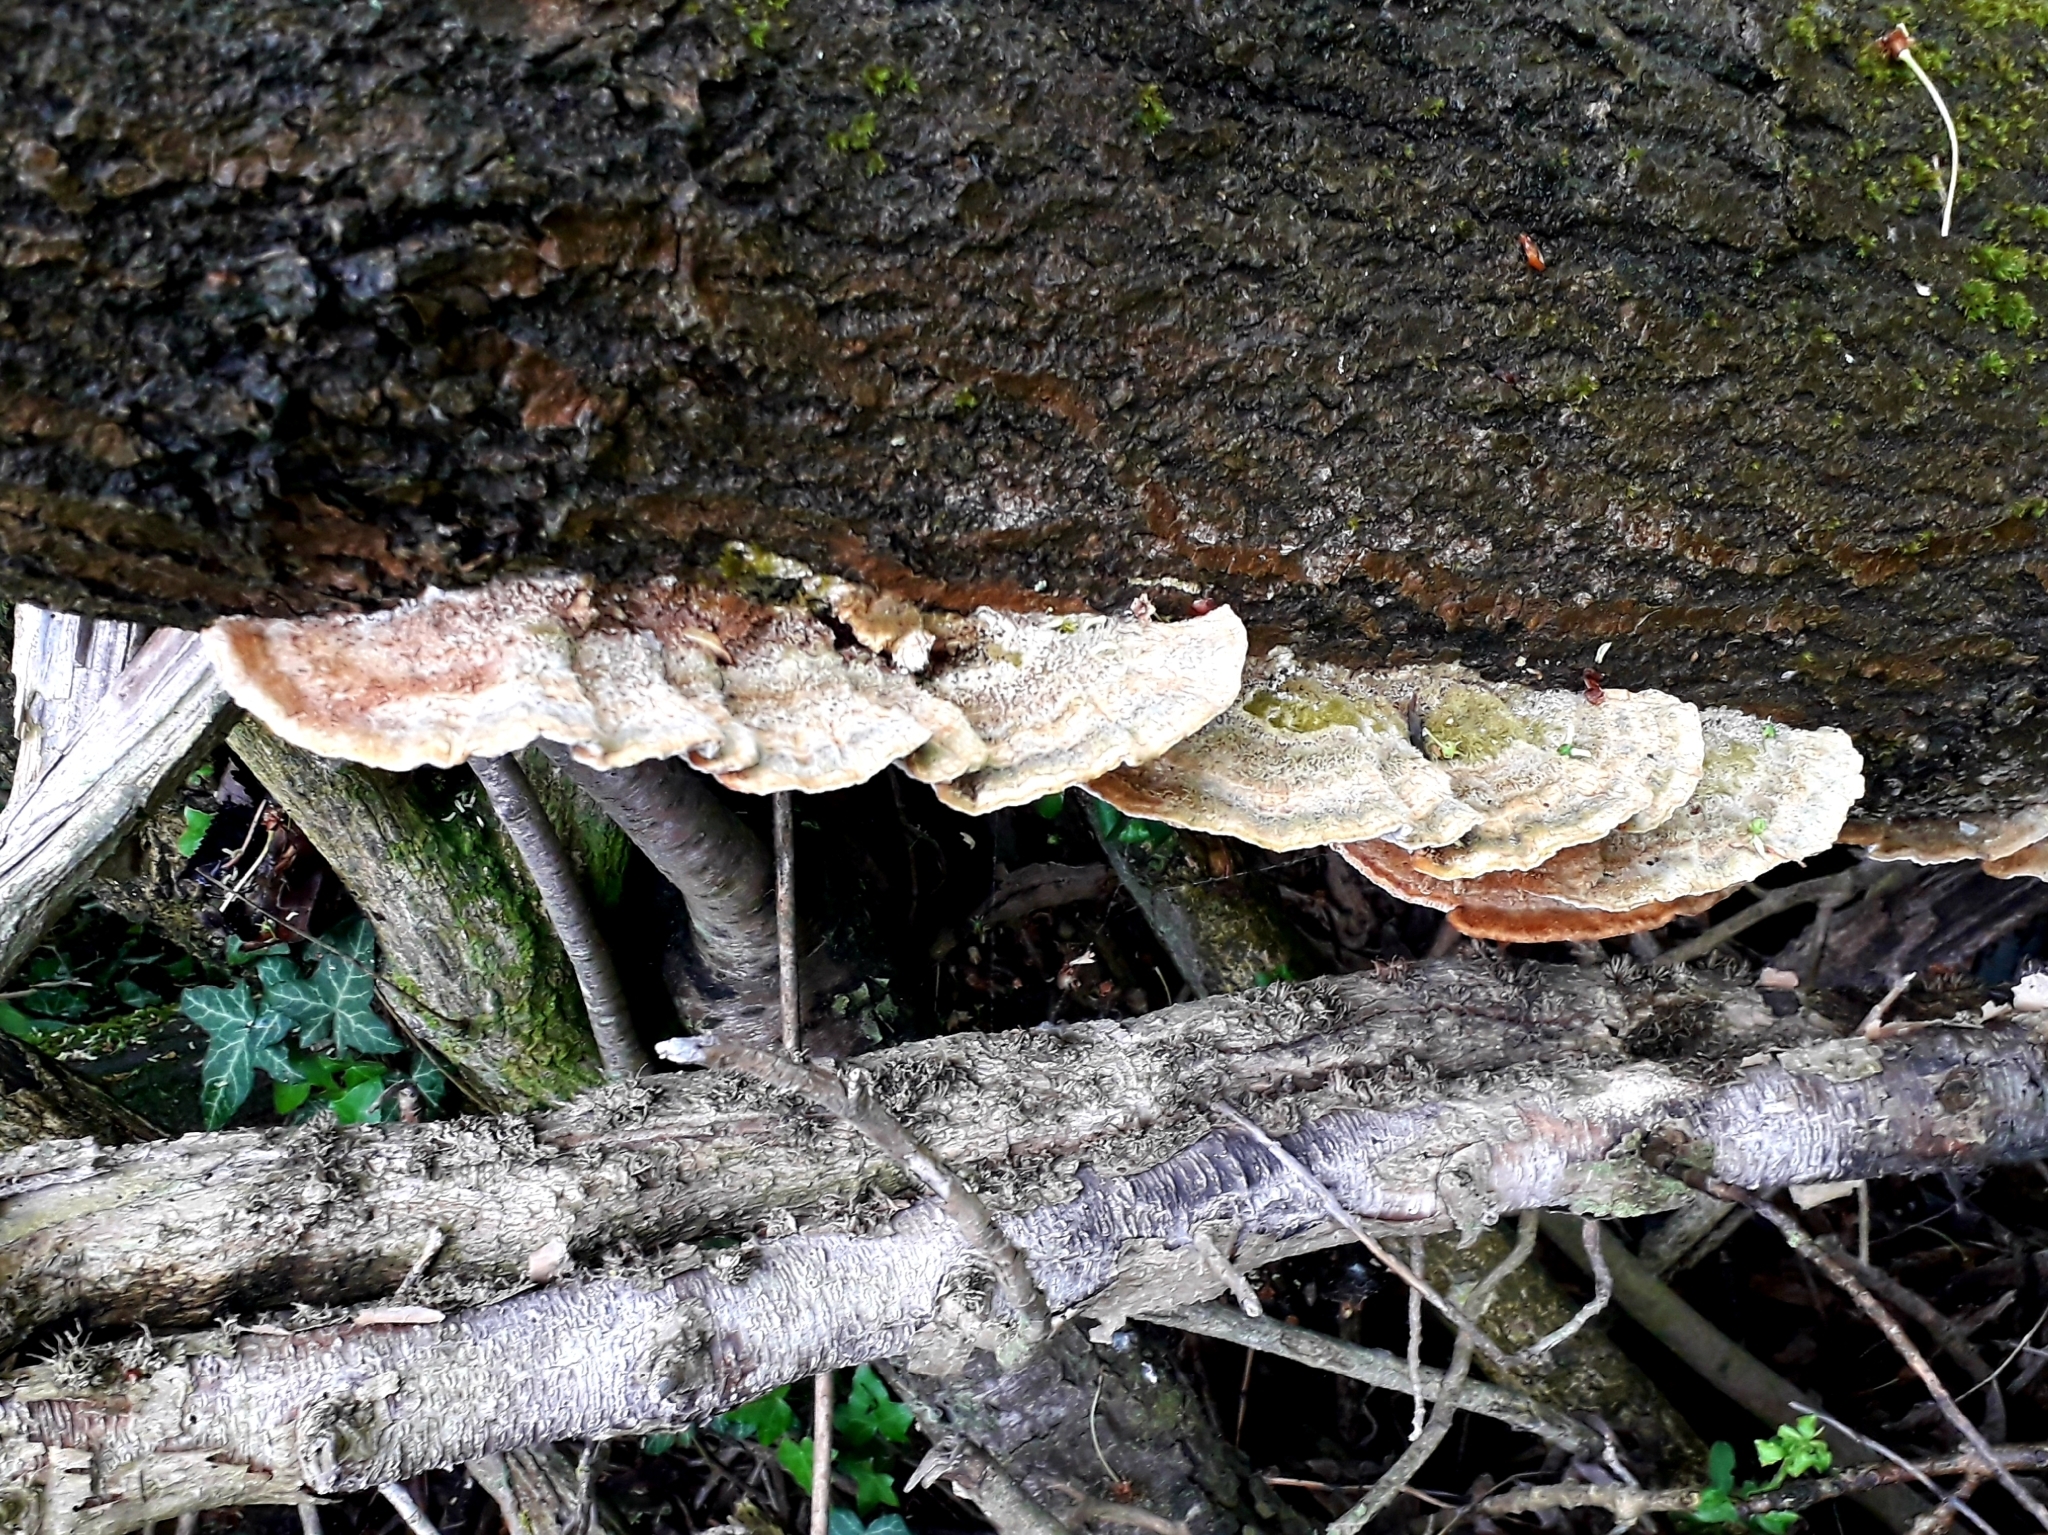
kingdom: Fungi
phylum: Basidiomycota
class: Agaricomycetes
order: Polyporales
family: Polyporaceae
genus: Trametes
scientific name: Trametes hirsuta
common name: Hairy bracket
